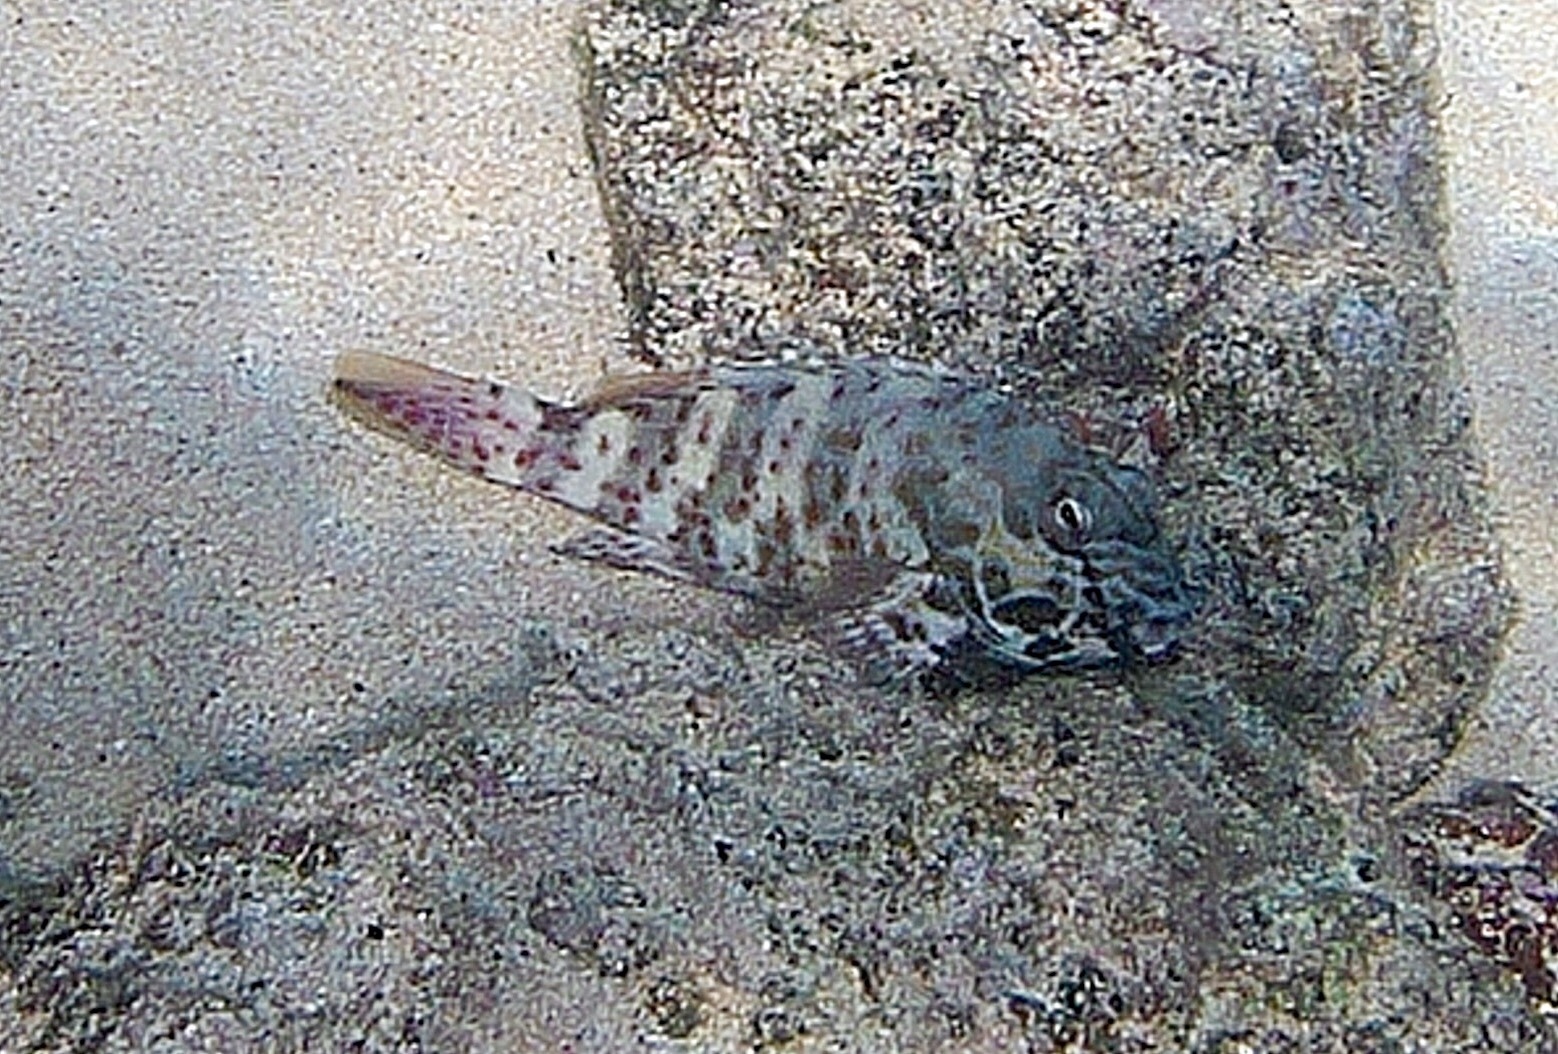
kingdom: Animalia
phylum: Chordata
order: Perciformes
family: Cirrhitidae
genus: Cirrhitus
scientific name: Cirrhitus pinnulatus
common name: Stocky hawkfish
